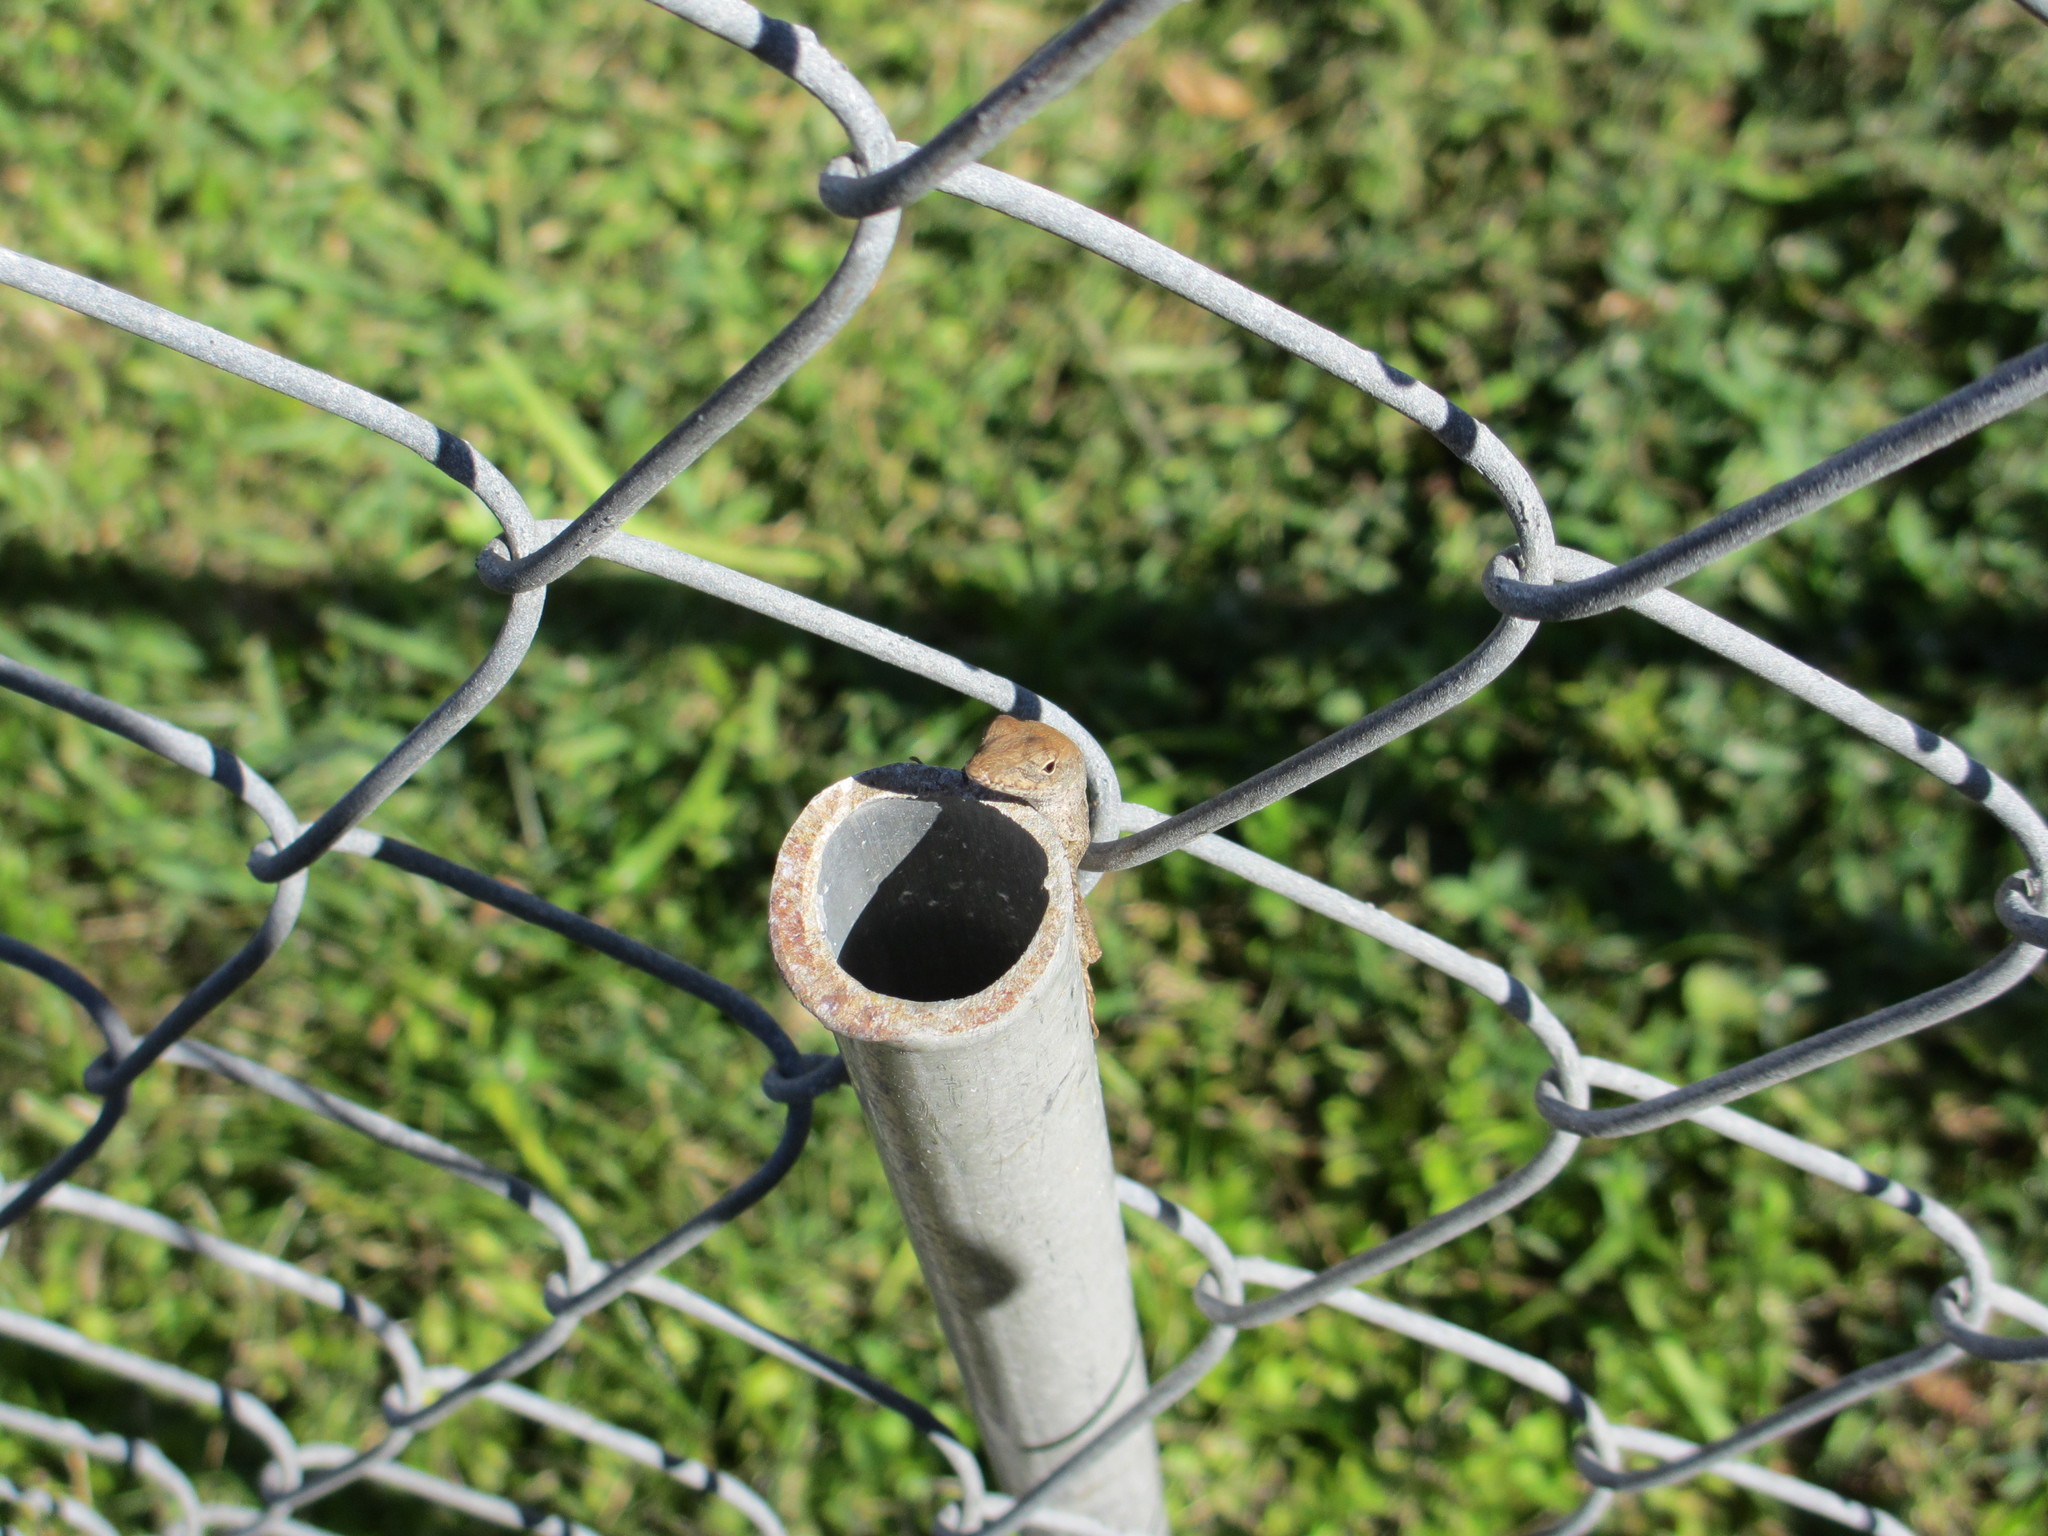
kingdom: Animalia
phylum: Chordata
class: Squamata
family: Dactyloidae
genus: Anolis
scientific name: Anolis sagrei
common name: Brown anole
